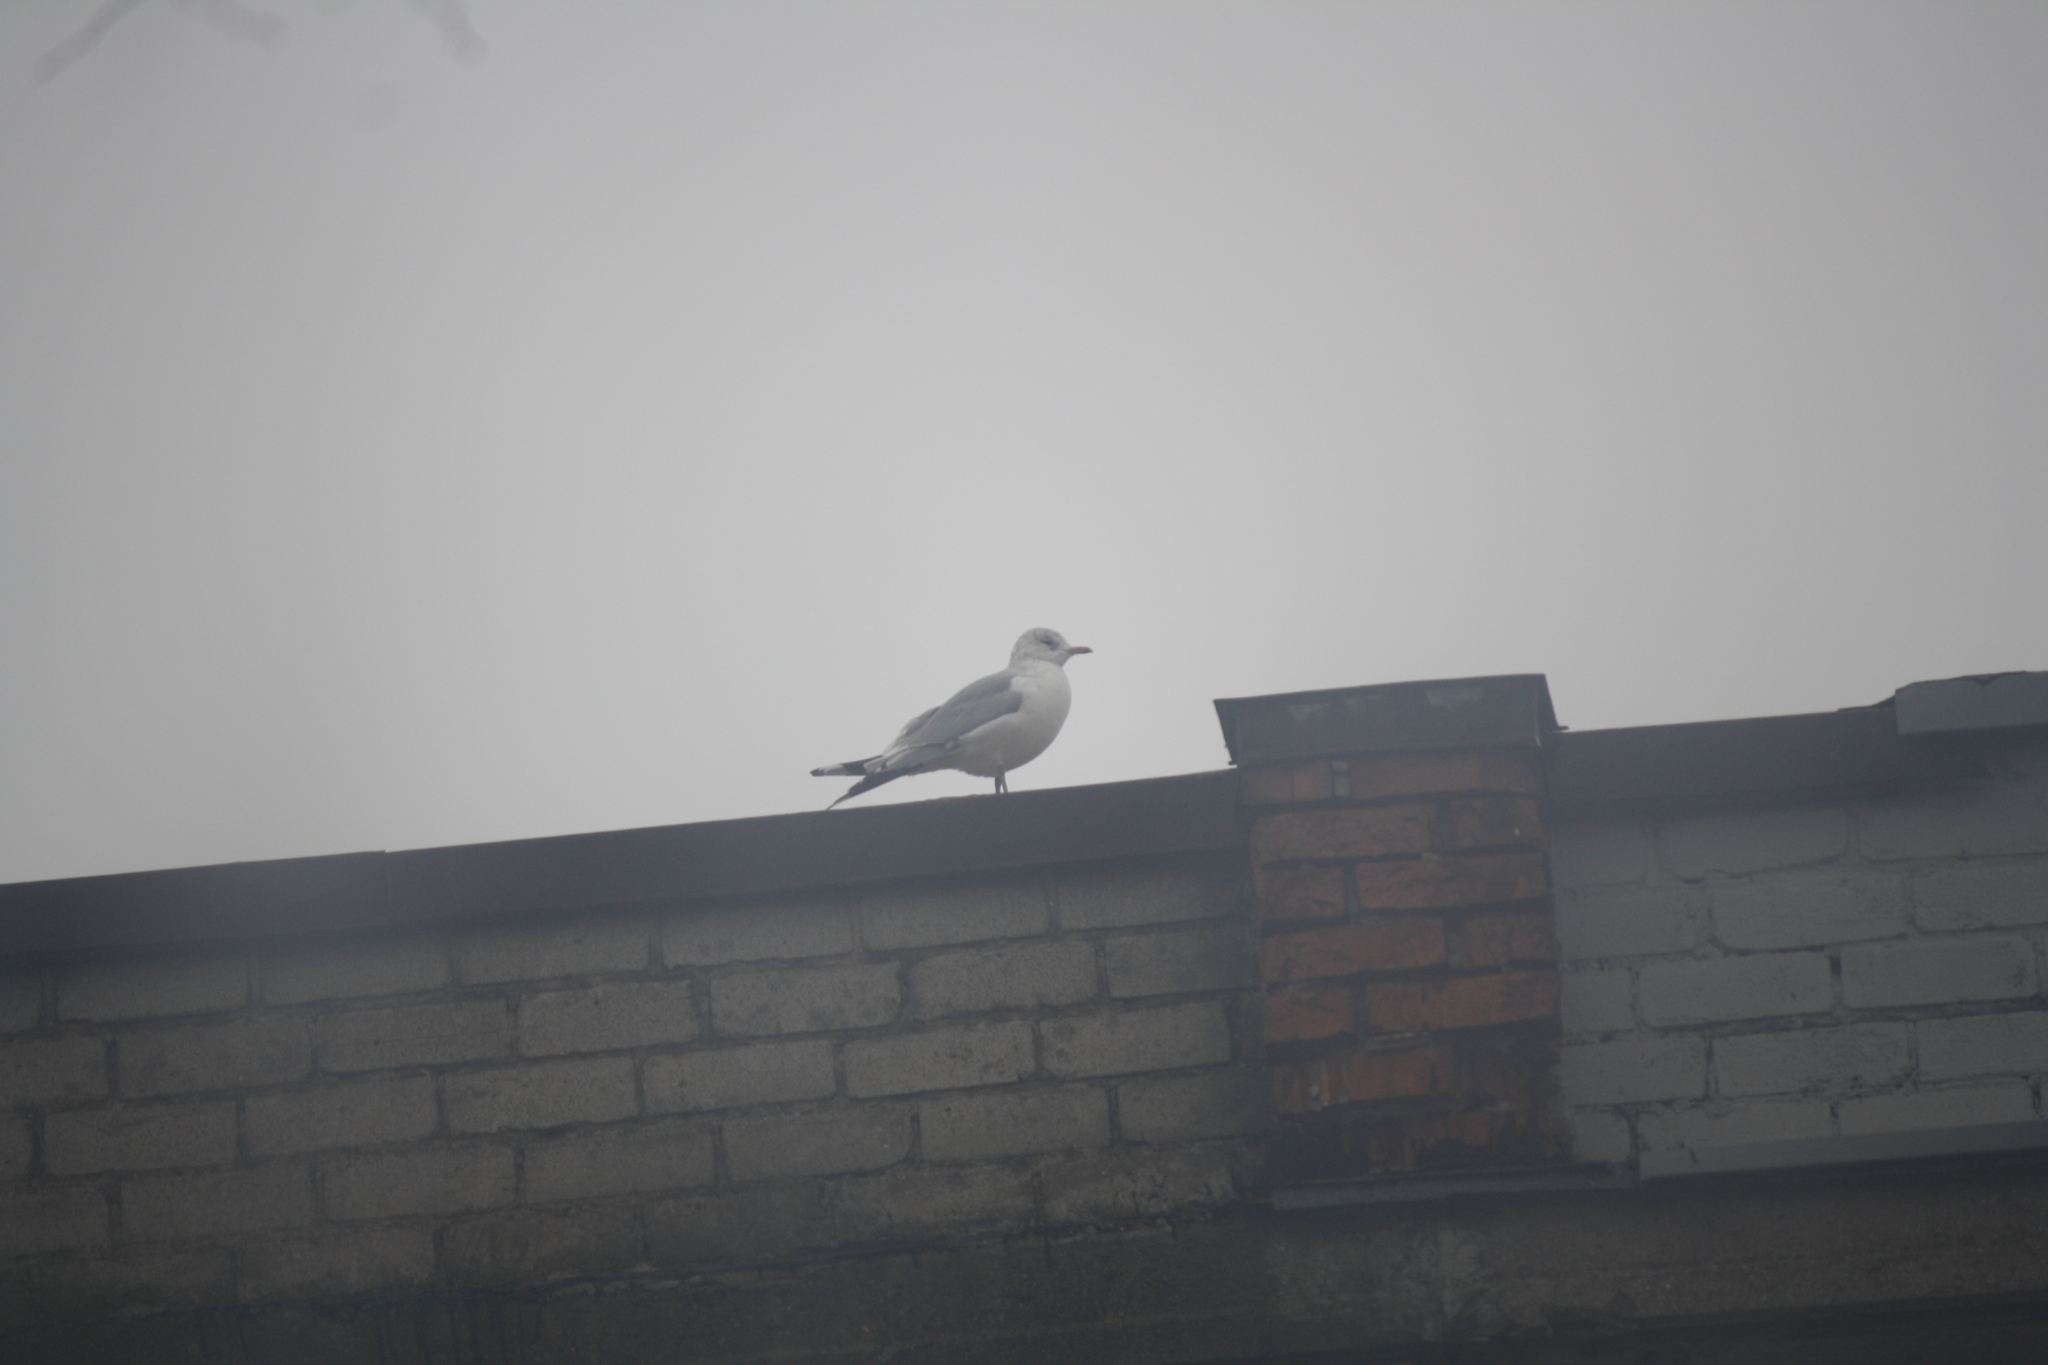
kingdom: Animalia
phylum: Chordata
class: Aves
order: Charadriiformes
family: Laridae
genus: Larus
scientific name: Larus canus
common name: Mew gull
